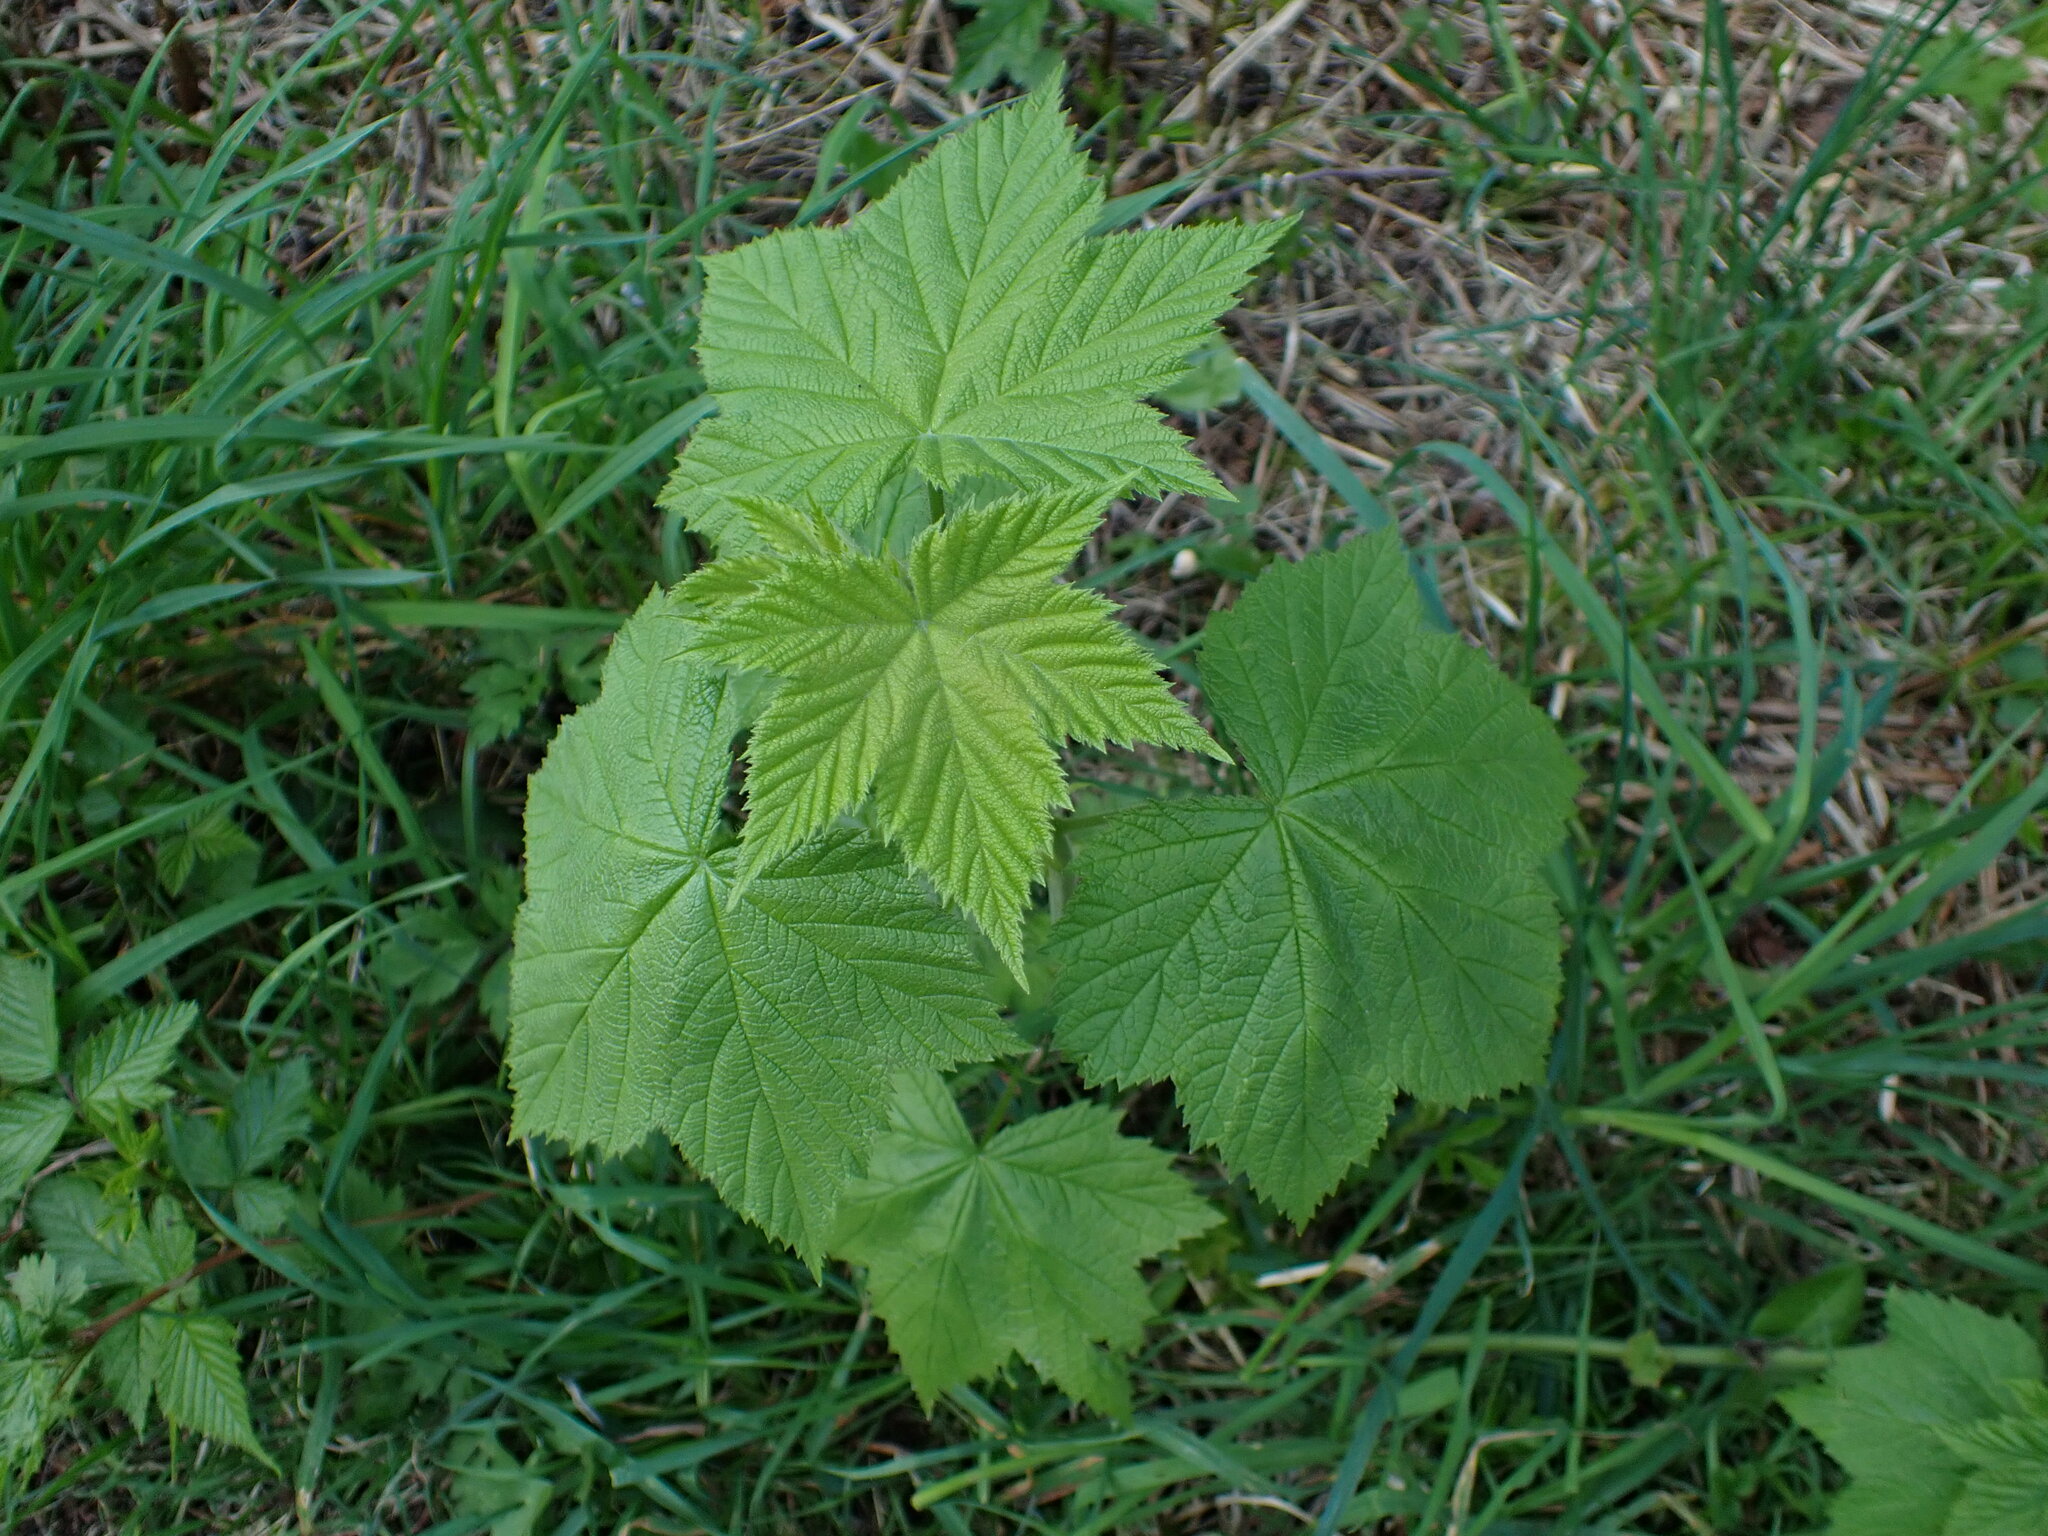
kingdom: Plantae
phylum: Tracheophyta
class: Magnoliopsida
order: Rosales
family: Rosaceae
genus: Rubus
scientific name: Rubus parviflorus
